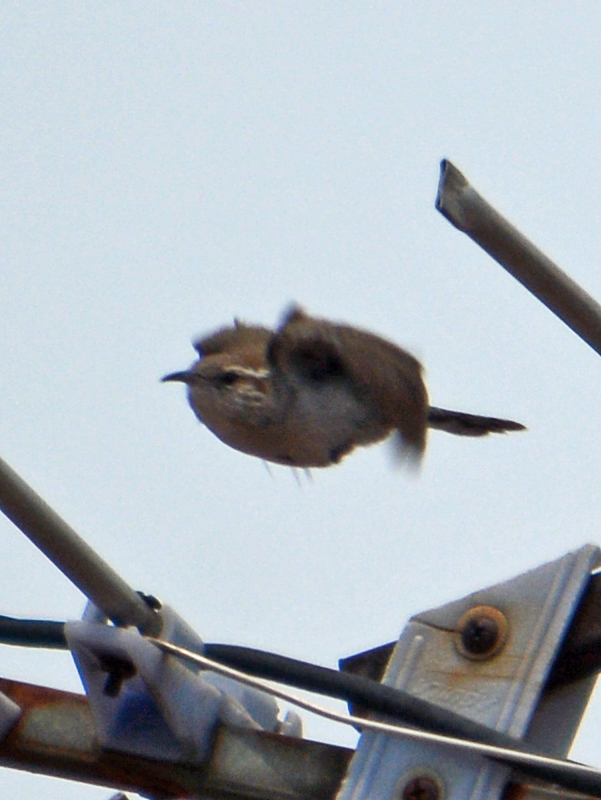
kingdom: Animalia
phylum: Chordata
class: Aves
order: Passeriformes
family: Troglodytidae
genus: Thryomanes
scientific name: Thryomanes bewickii
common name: Bewick's wren
